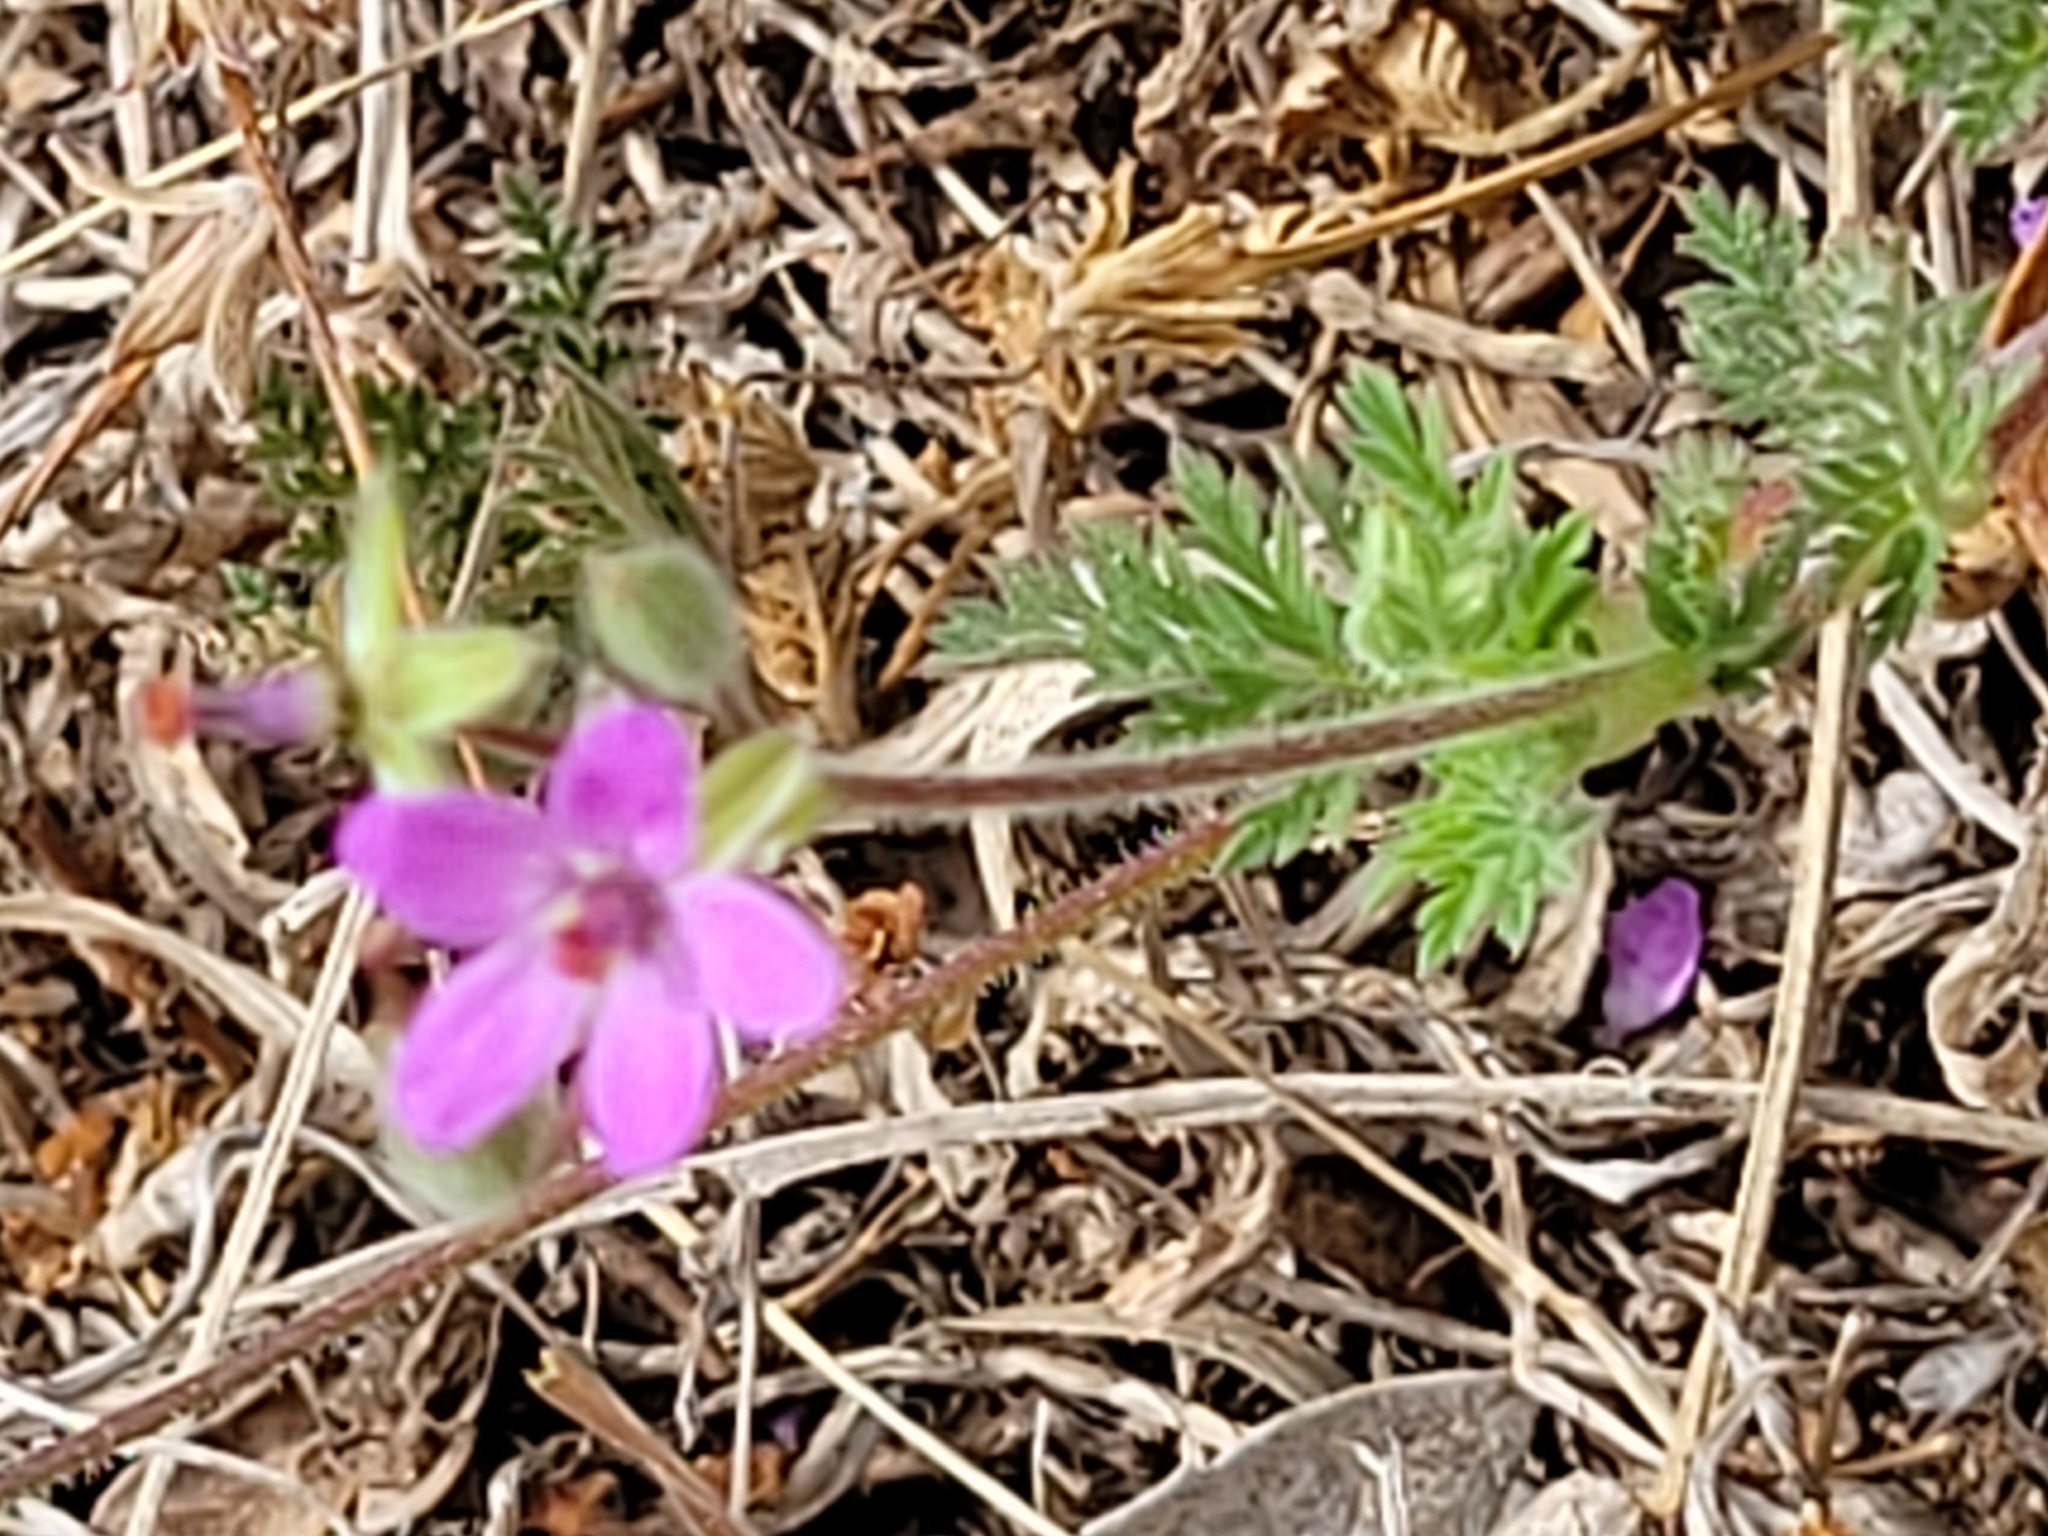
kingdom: Plantae
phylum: Tracheophyta
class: Magnoliopsida
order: Geraniales
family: Geraniaceae
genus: Erodium
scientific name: Erodium cicutarium
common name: Common stork's-bill
